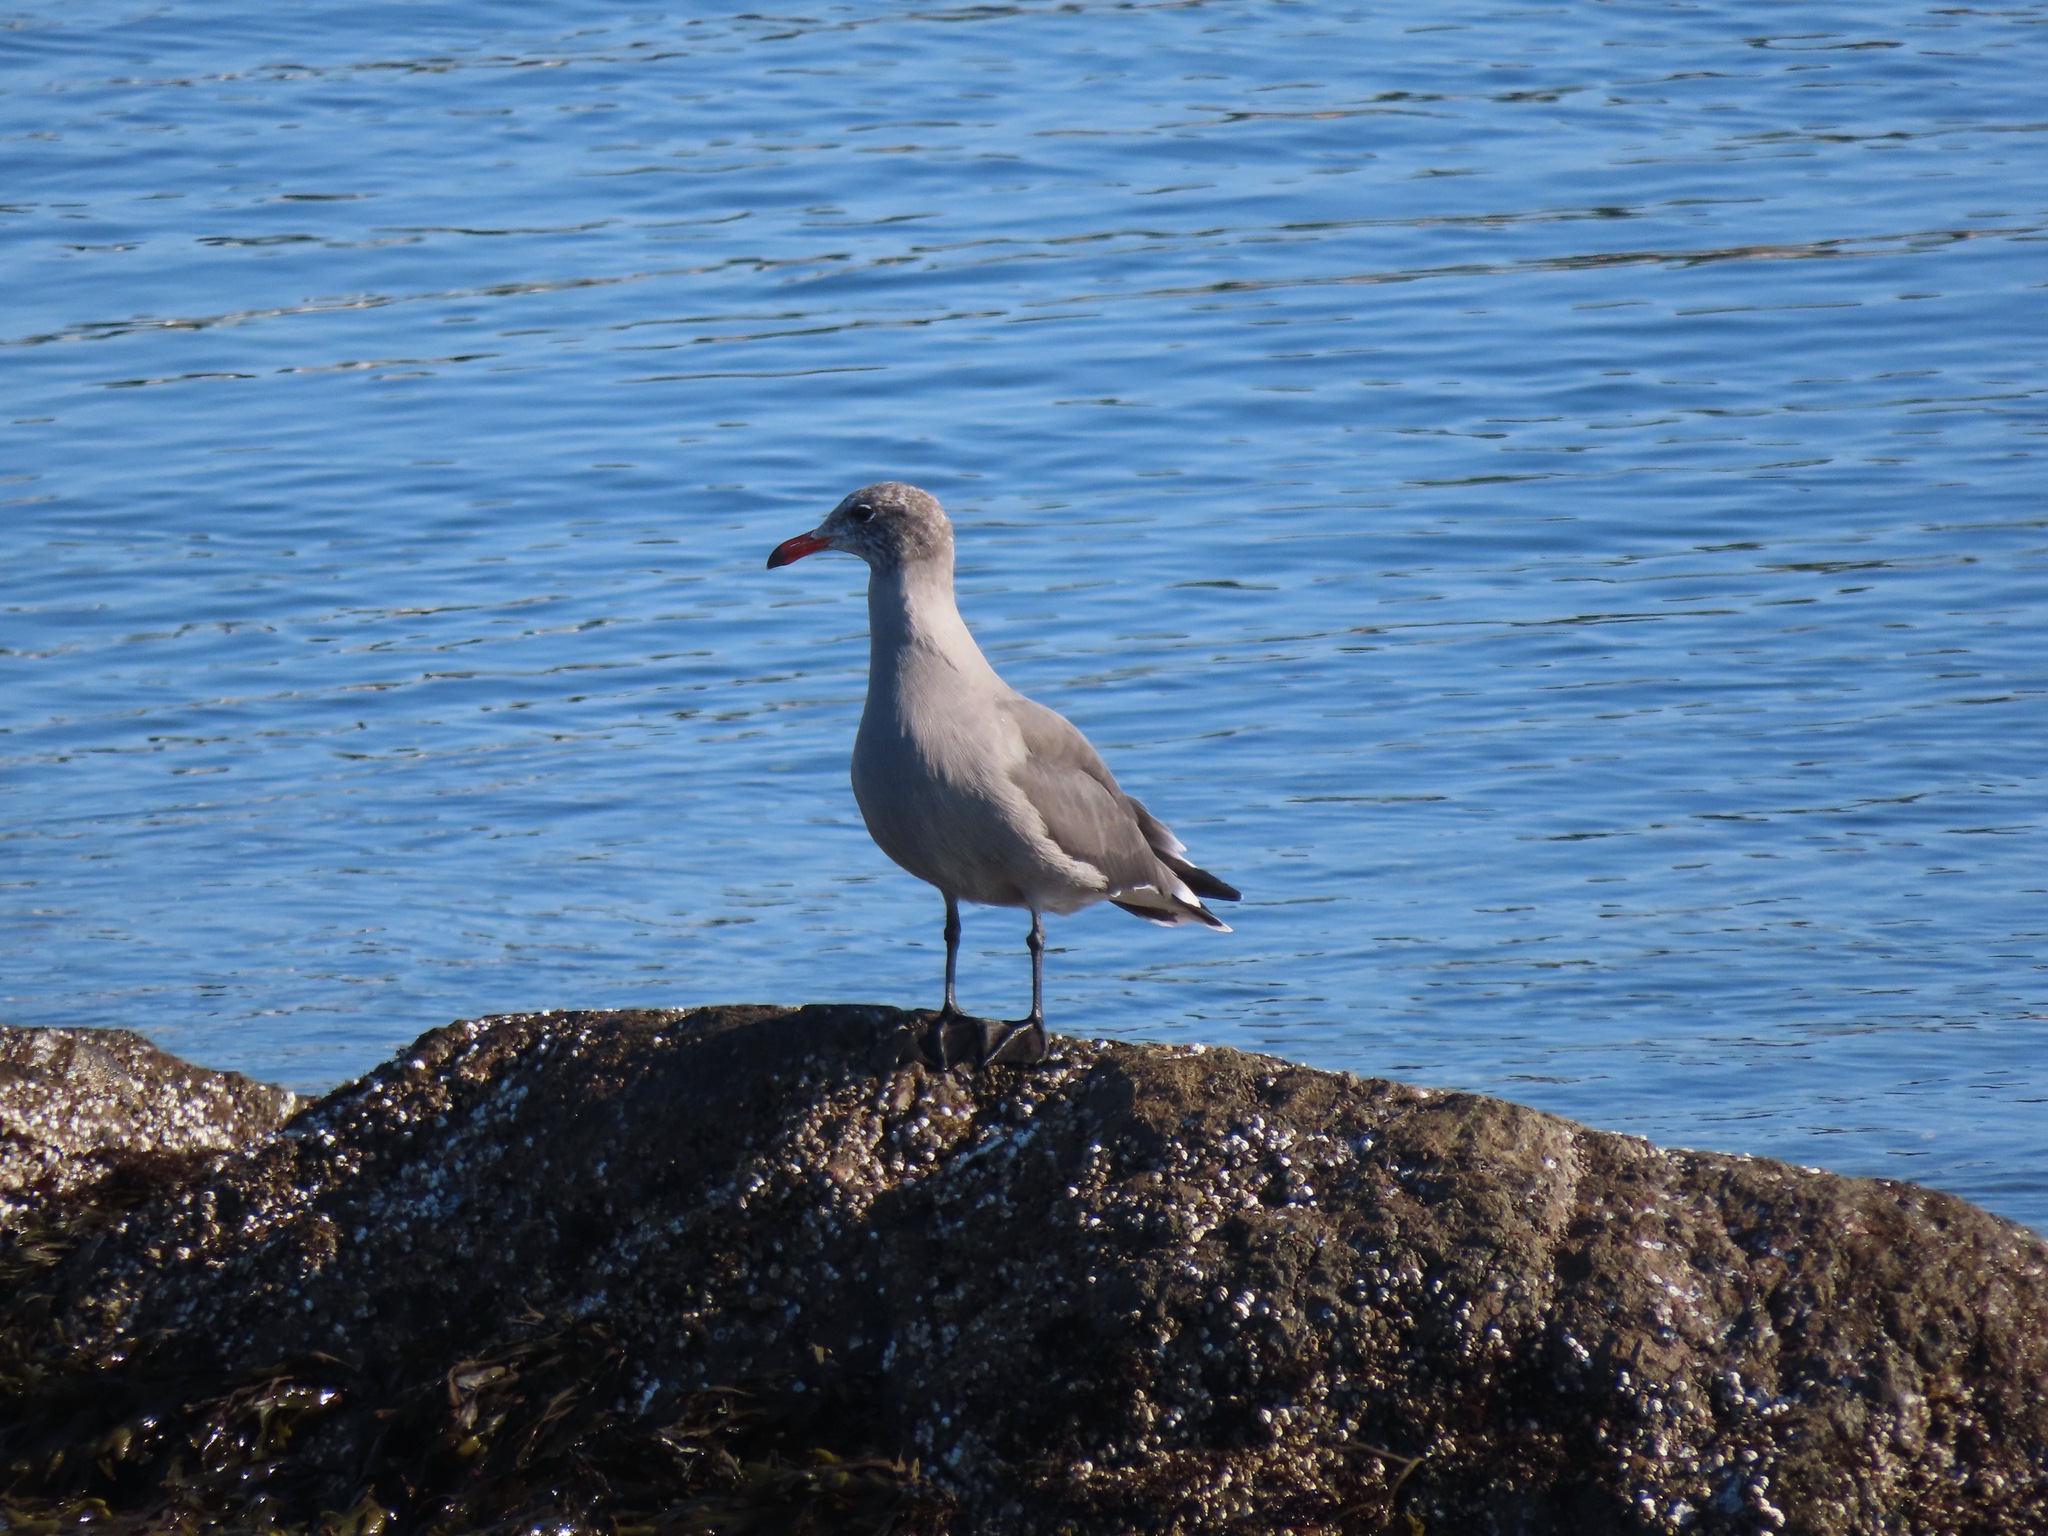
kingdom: Animalia
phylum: Chordata
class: Aves
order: Charadriiformes
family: Laridae
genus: Larus
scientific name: Larus heermanni
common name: Heermann's gull
